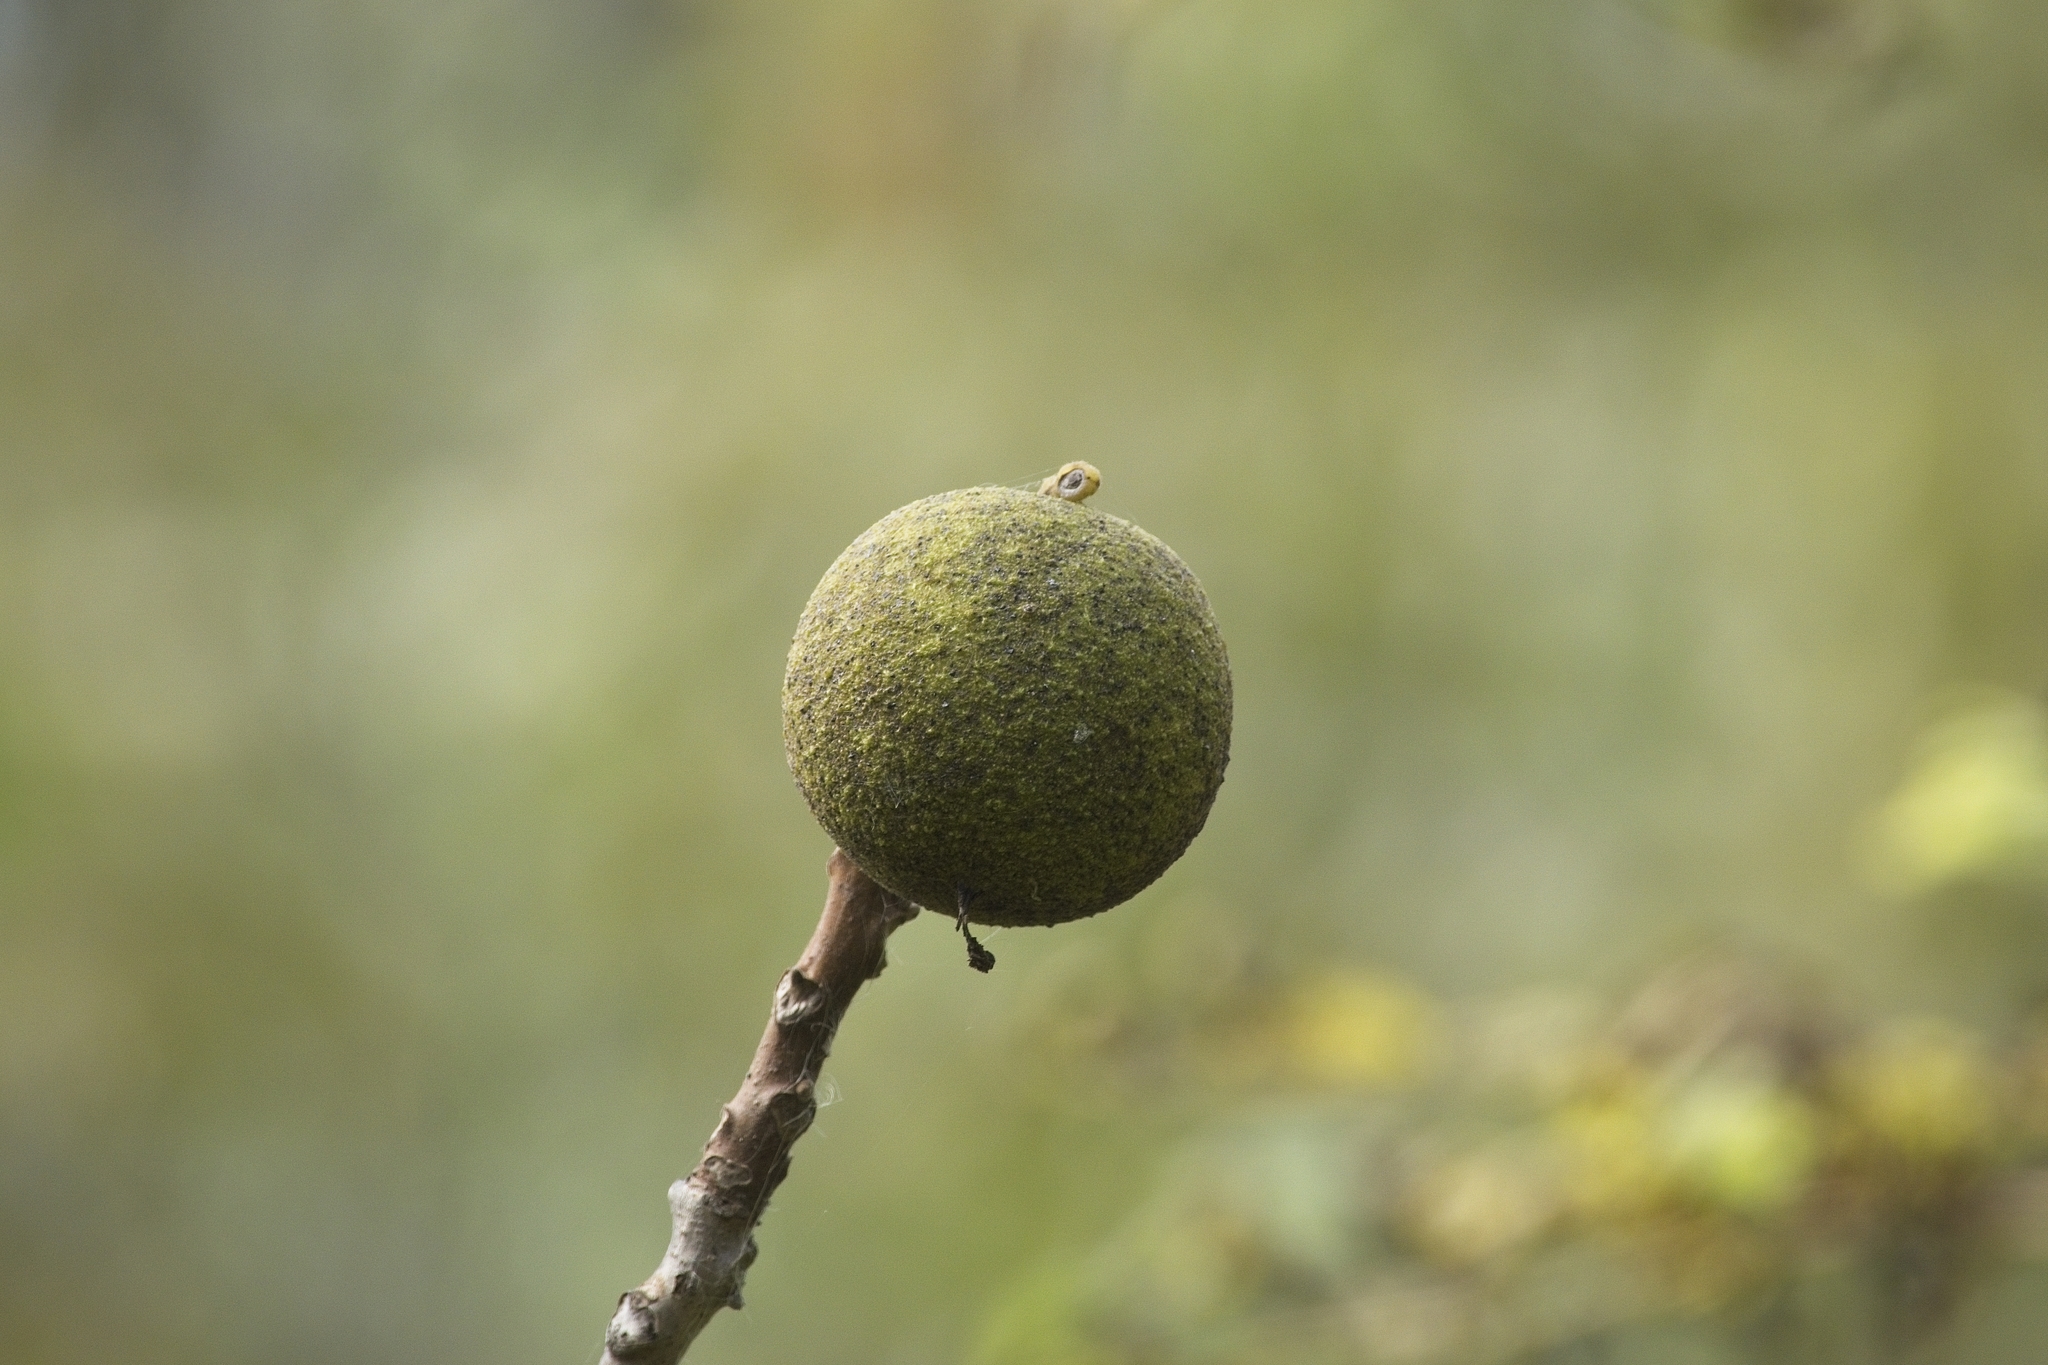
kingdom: Plantae
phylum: Tracheophyta
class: Magnoliopsida
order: Fagales
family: Juglandaceae
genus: Juglans
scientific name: Juglans nigra
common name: Black walnut
